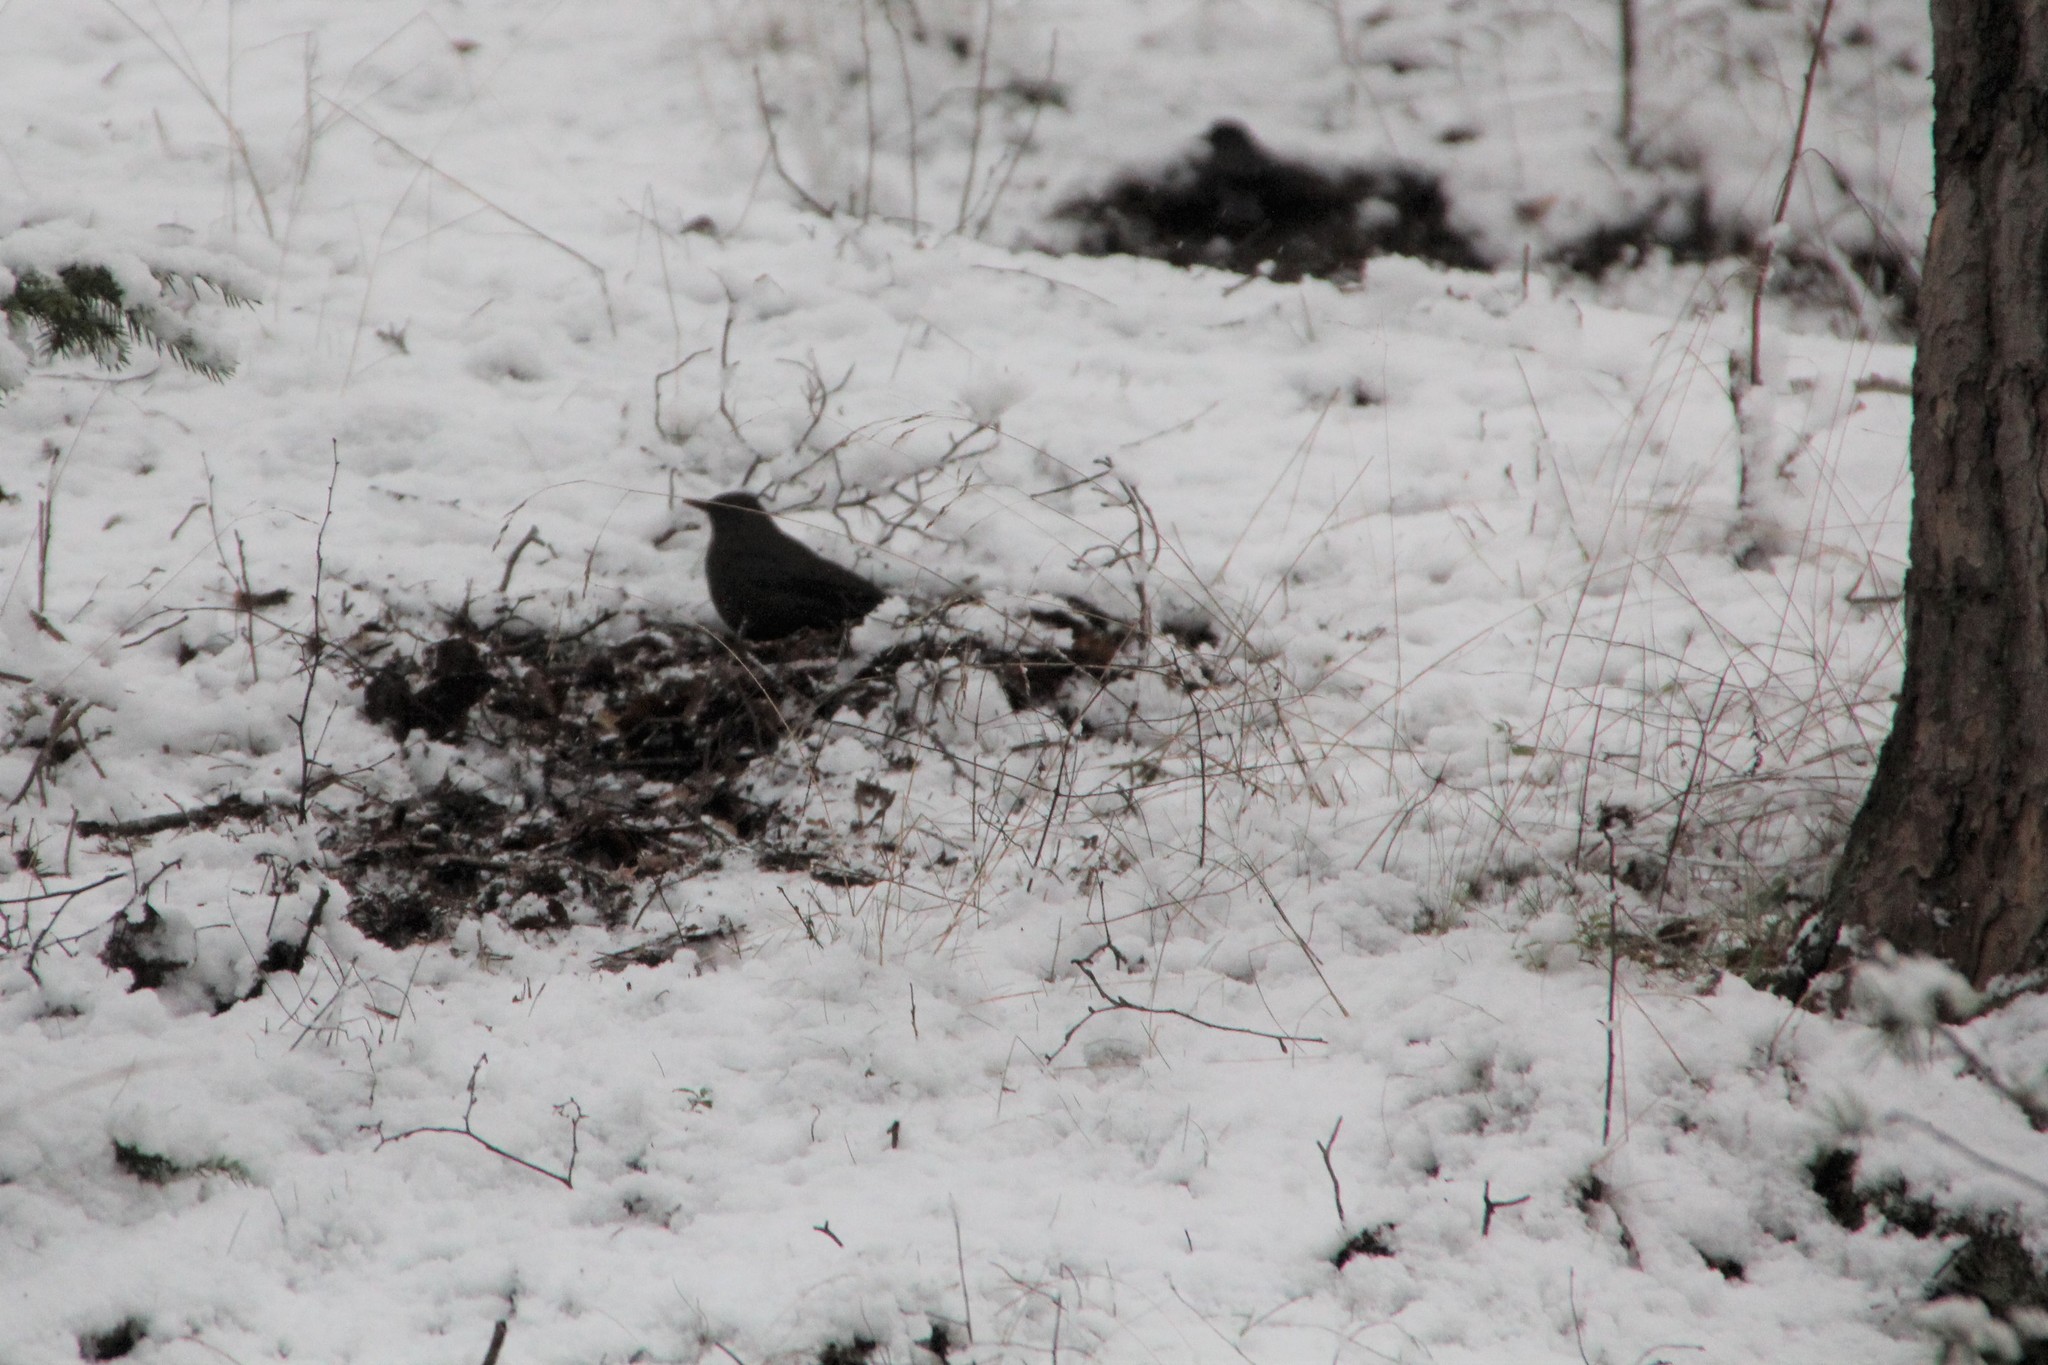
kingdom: Animalia
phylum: Chordata
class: Aves
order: Passeriformes
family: Turdidae
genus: Turdus
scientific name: Turdus merula
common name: Common blackbird
